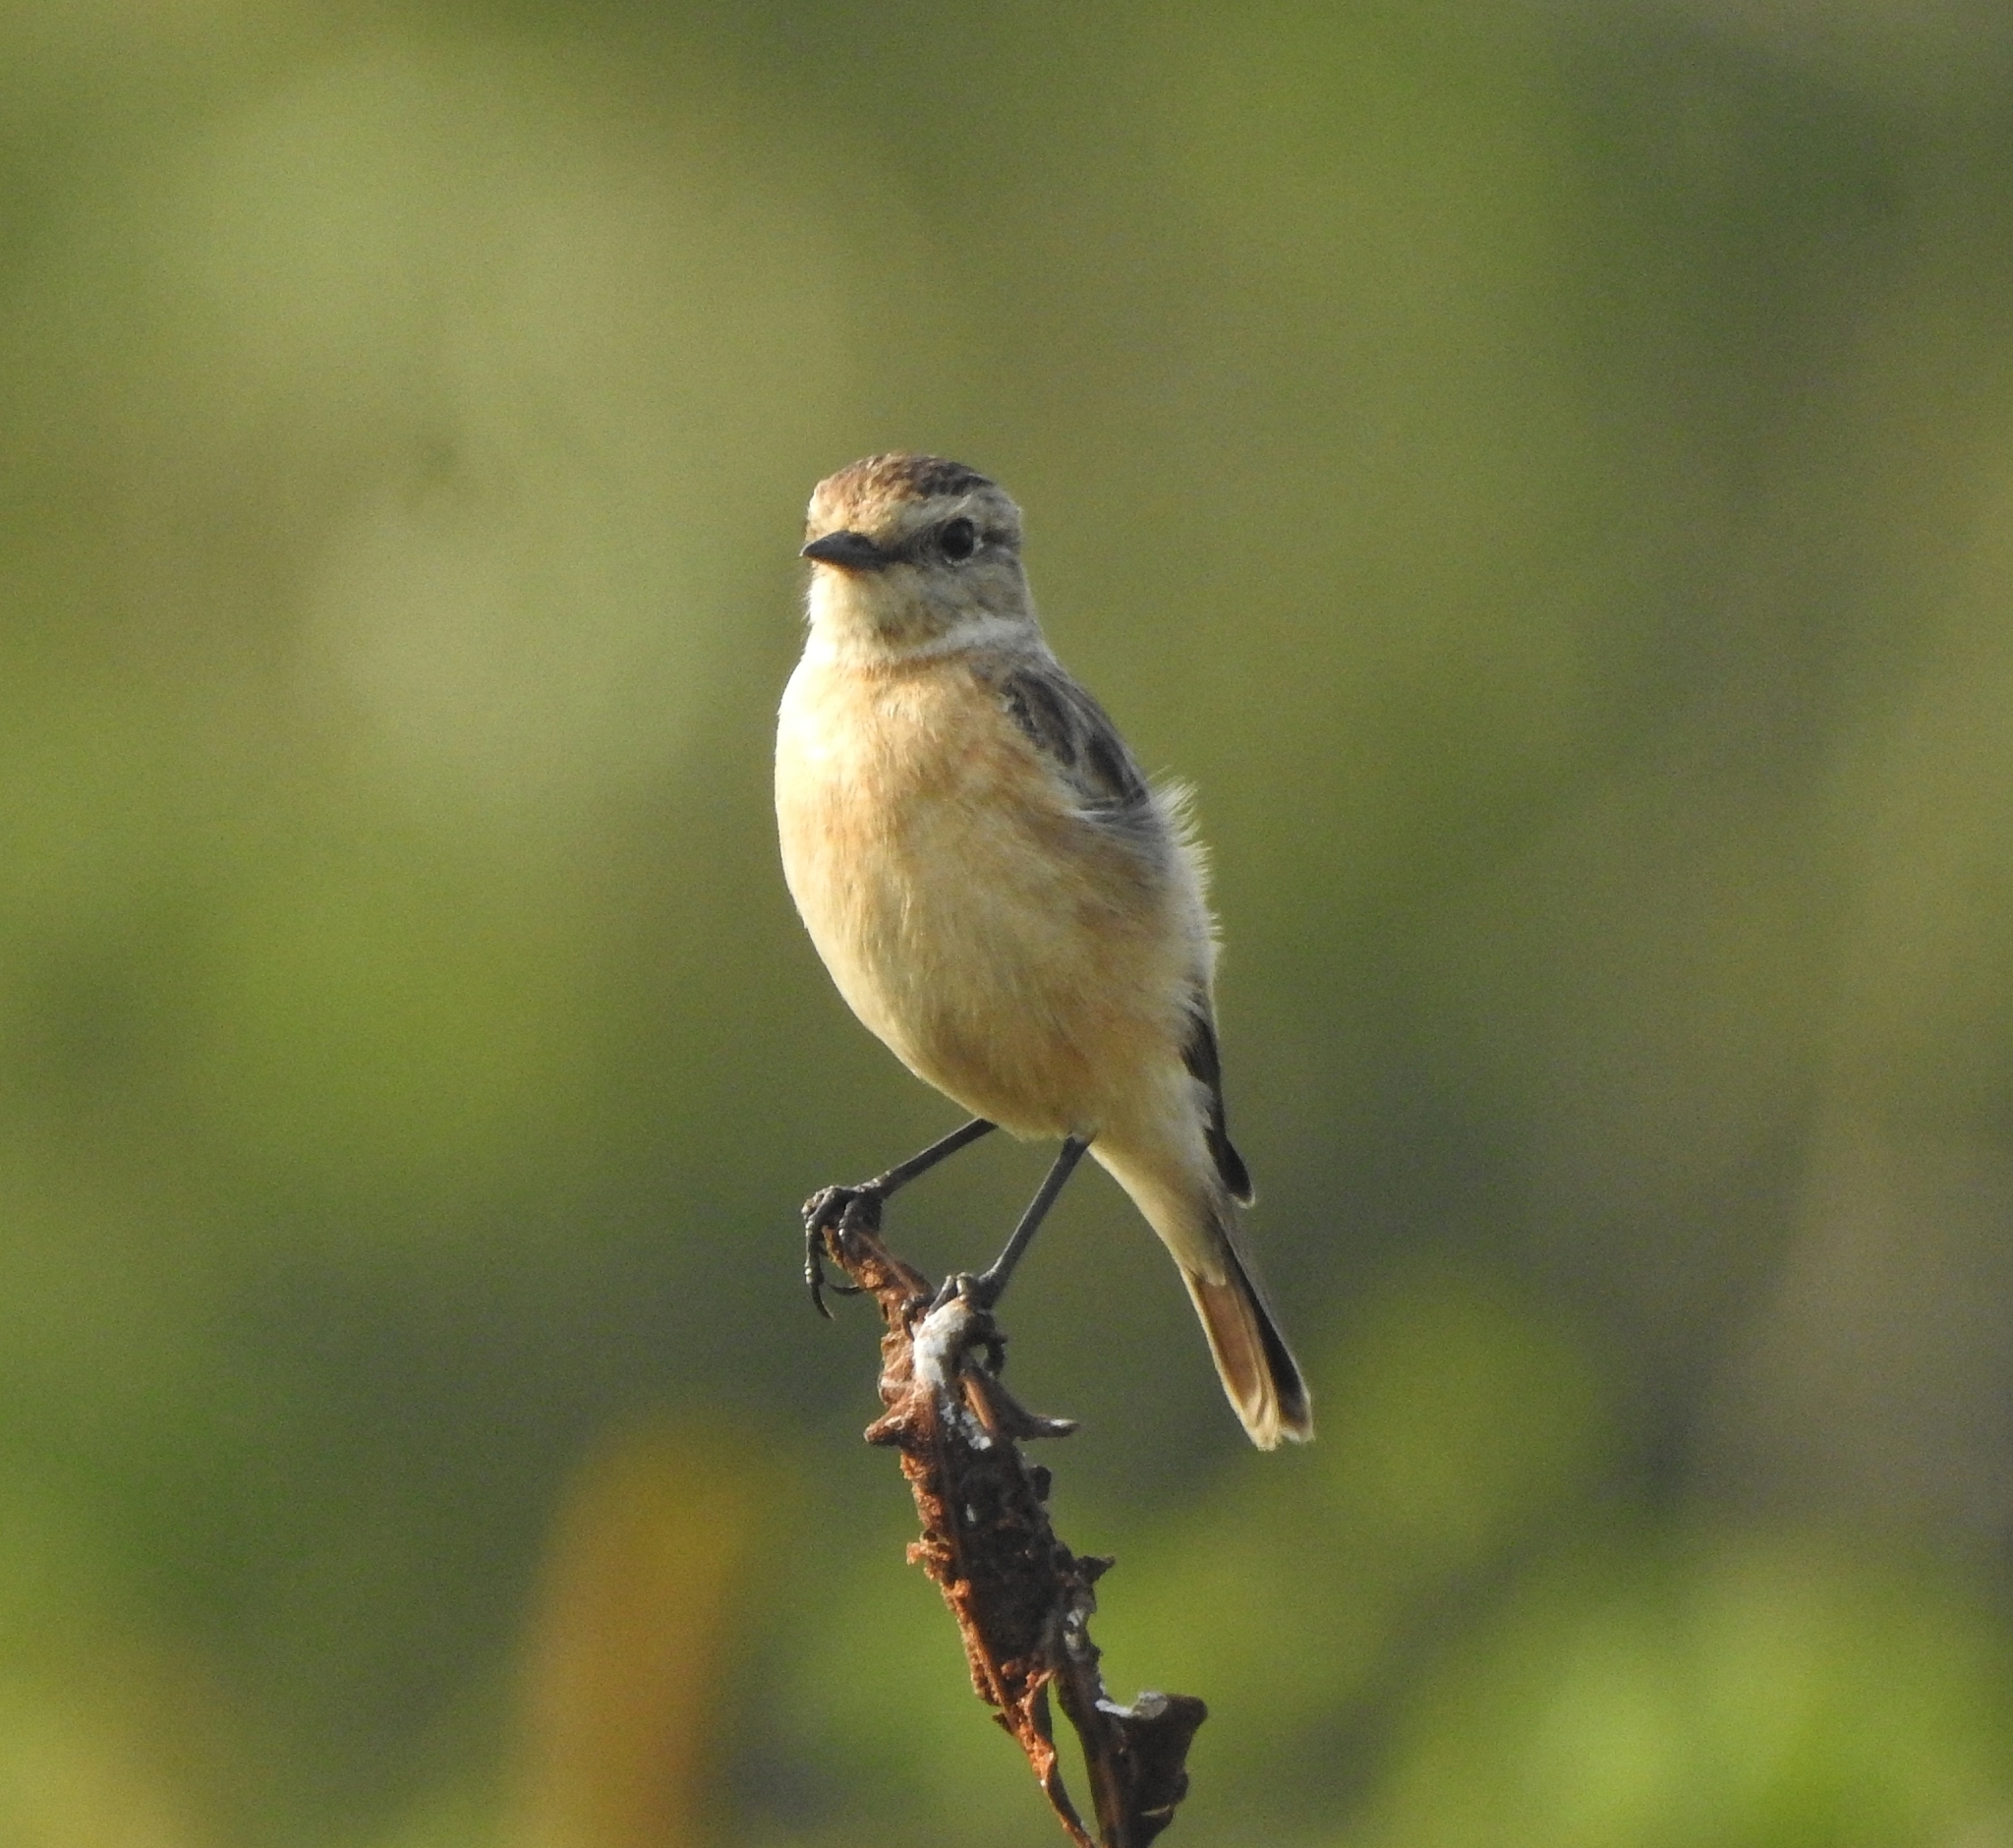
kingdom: Animalia
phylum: Chordata
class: Aves
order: Passeriformes
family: Muscicapidae
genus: Saxicola
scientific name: Saxicola maurus
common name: Siberian stonechat
